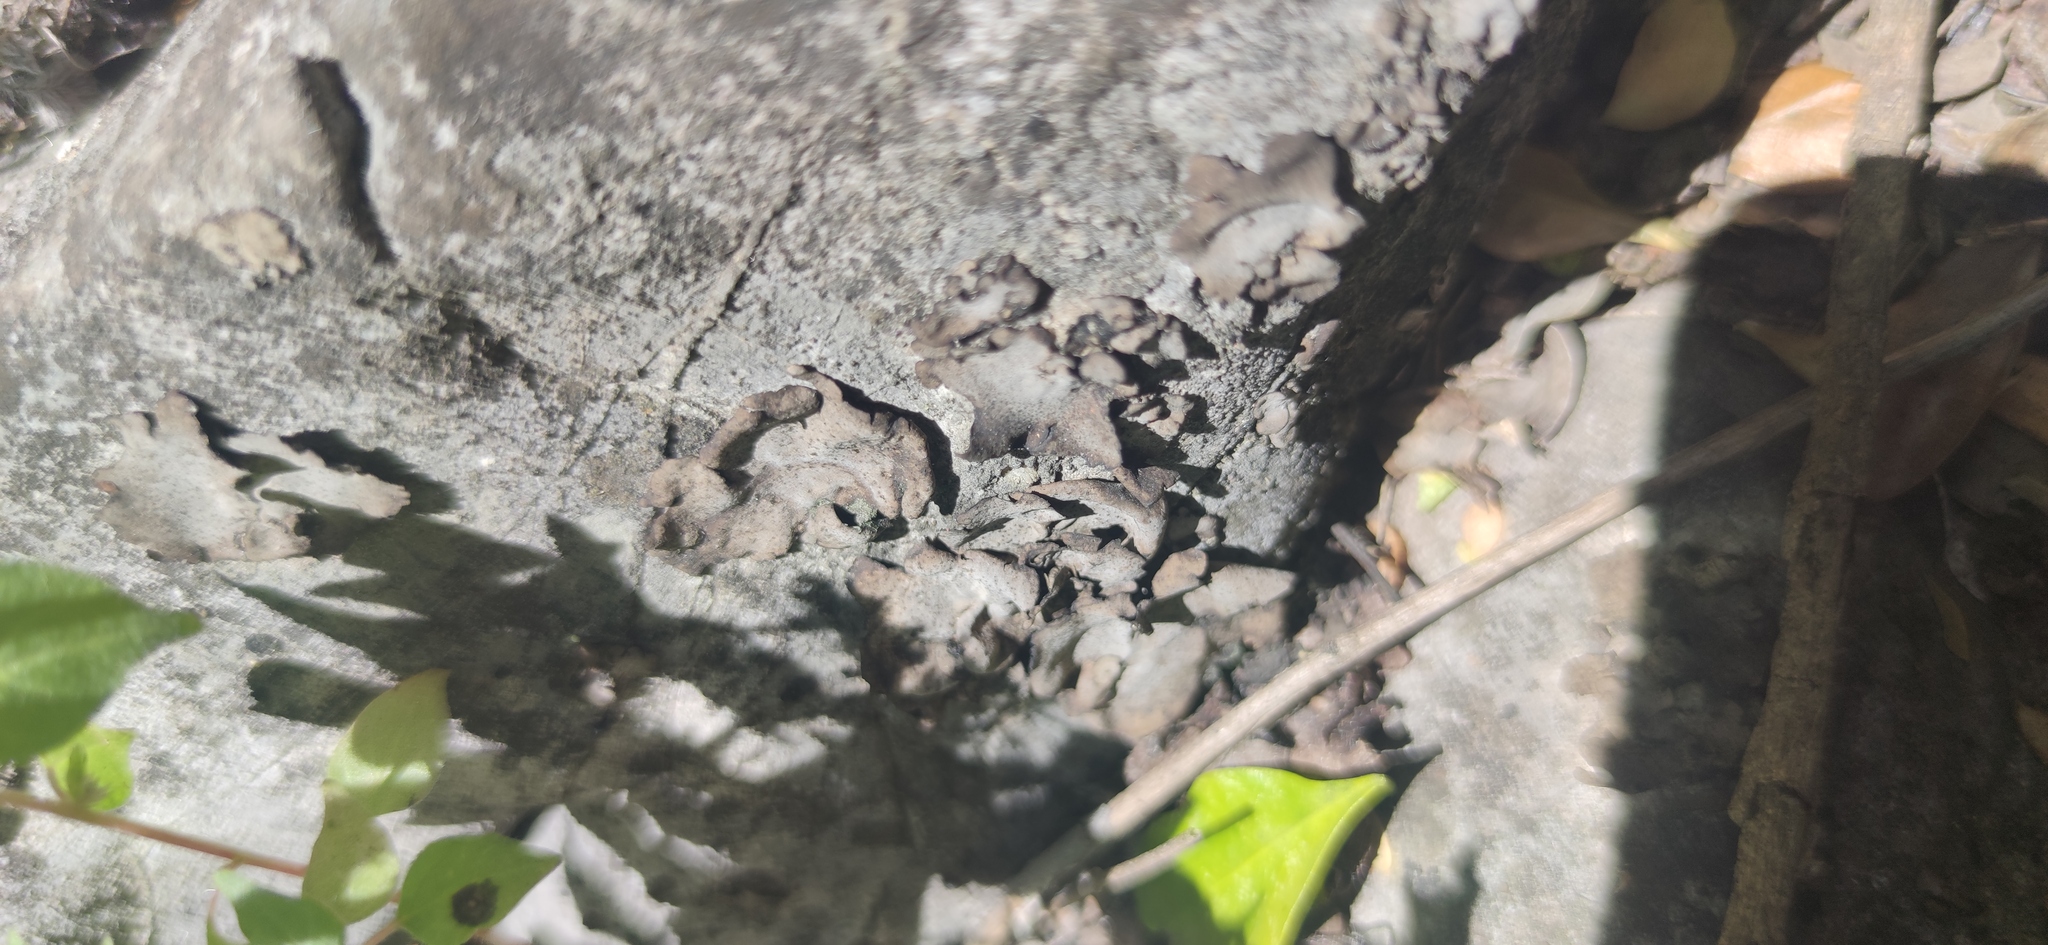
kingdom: Fungi
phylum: Ascomycota
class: Eurotiomycetes
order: Verrucariales
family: Verrucariaceae
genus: Dermatocarpon
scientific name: Dermatocarpon miniatum
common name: Leather lichen
